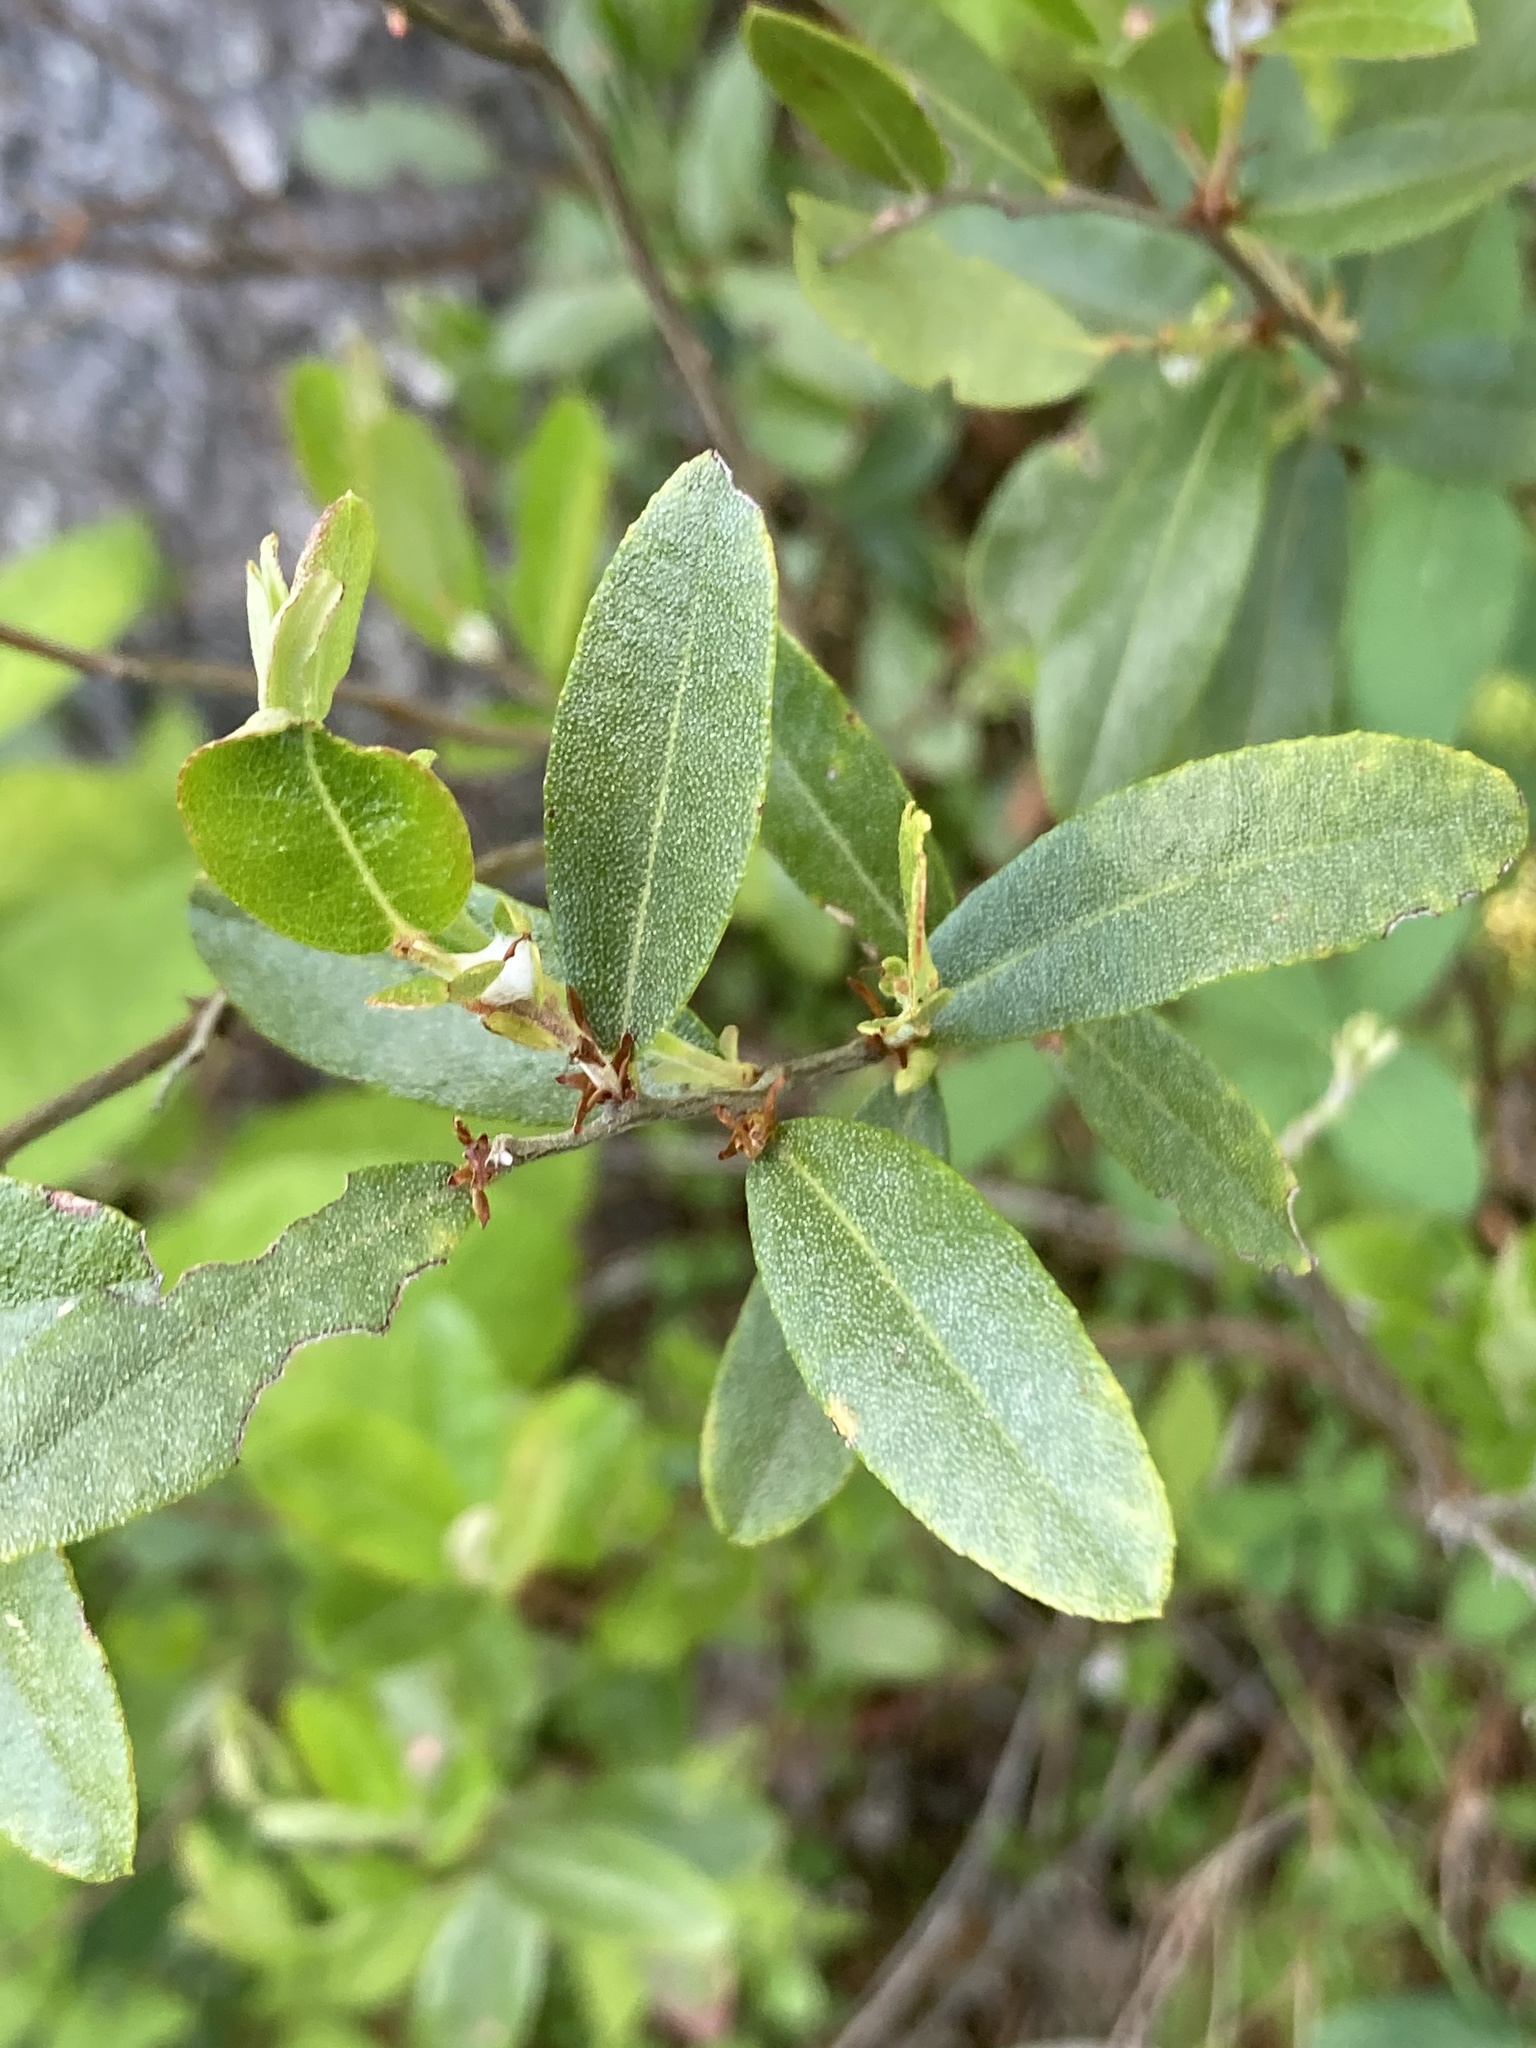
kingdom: Plantae
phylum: Tracheophyta
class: Magnoliopsida
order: Ericales
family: Ericaceae
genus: Chamaedaphne
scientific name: Chamaedaphne calyculata
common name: Leatherleaf
